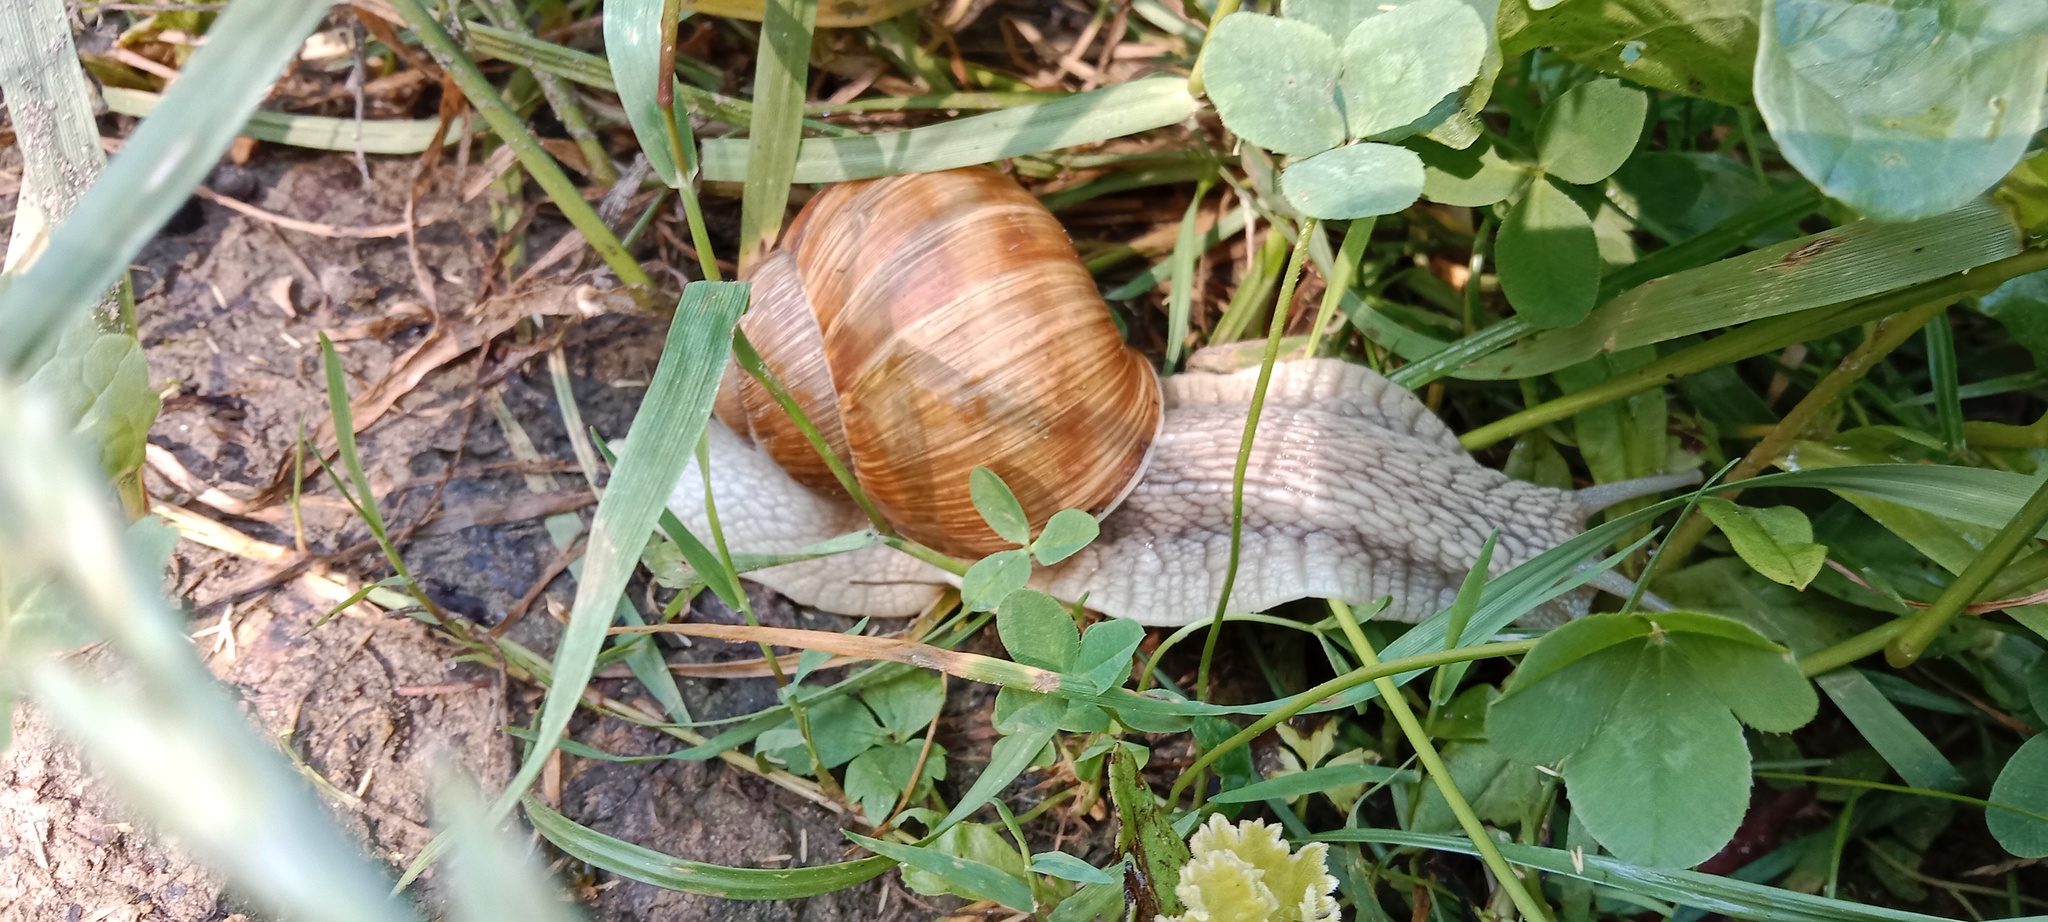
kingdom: Animalia
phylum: Mollusca
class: Gastropoda
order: Stylommatophora
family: Helicidae
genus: Helix
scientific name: Helix pomatia
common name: Roman snail
